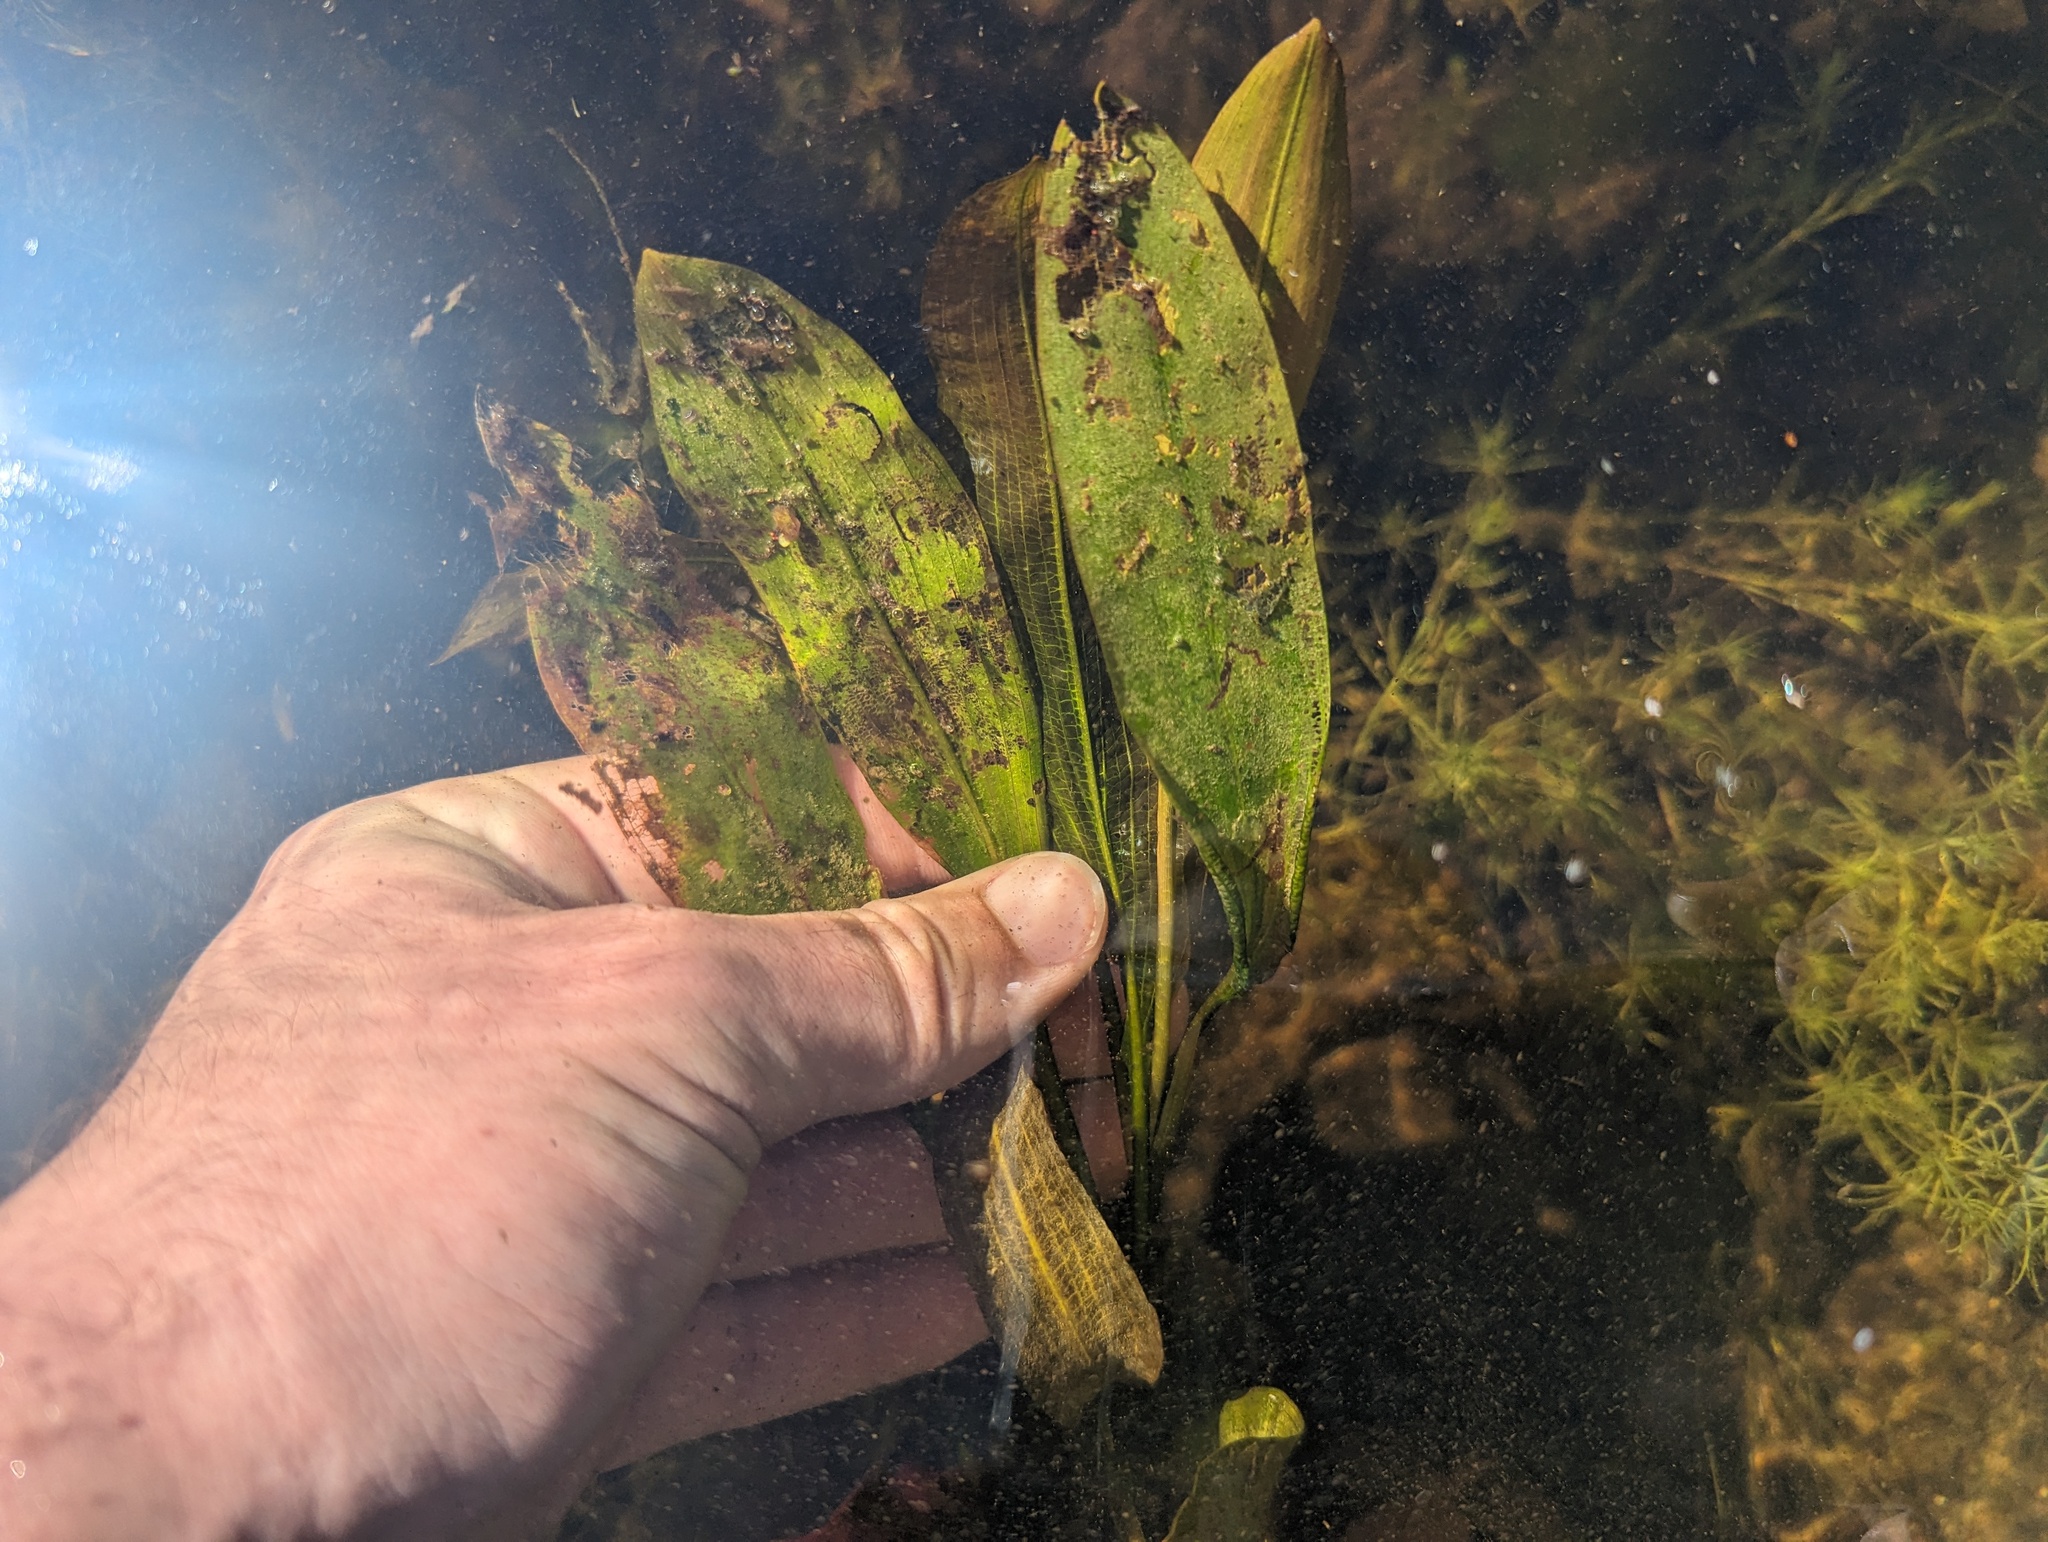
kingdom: Plantae
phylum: Tracheophyta
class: Liliopsida
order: Alismatales
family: Potamogetonaceae
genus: Potamogeton
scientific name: Potamogeton illinoensis
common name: Illinois pondweed
